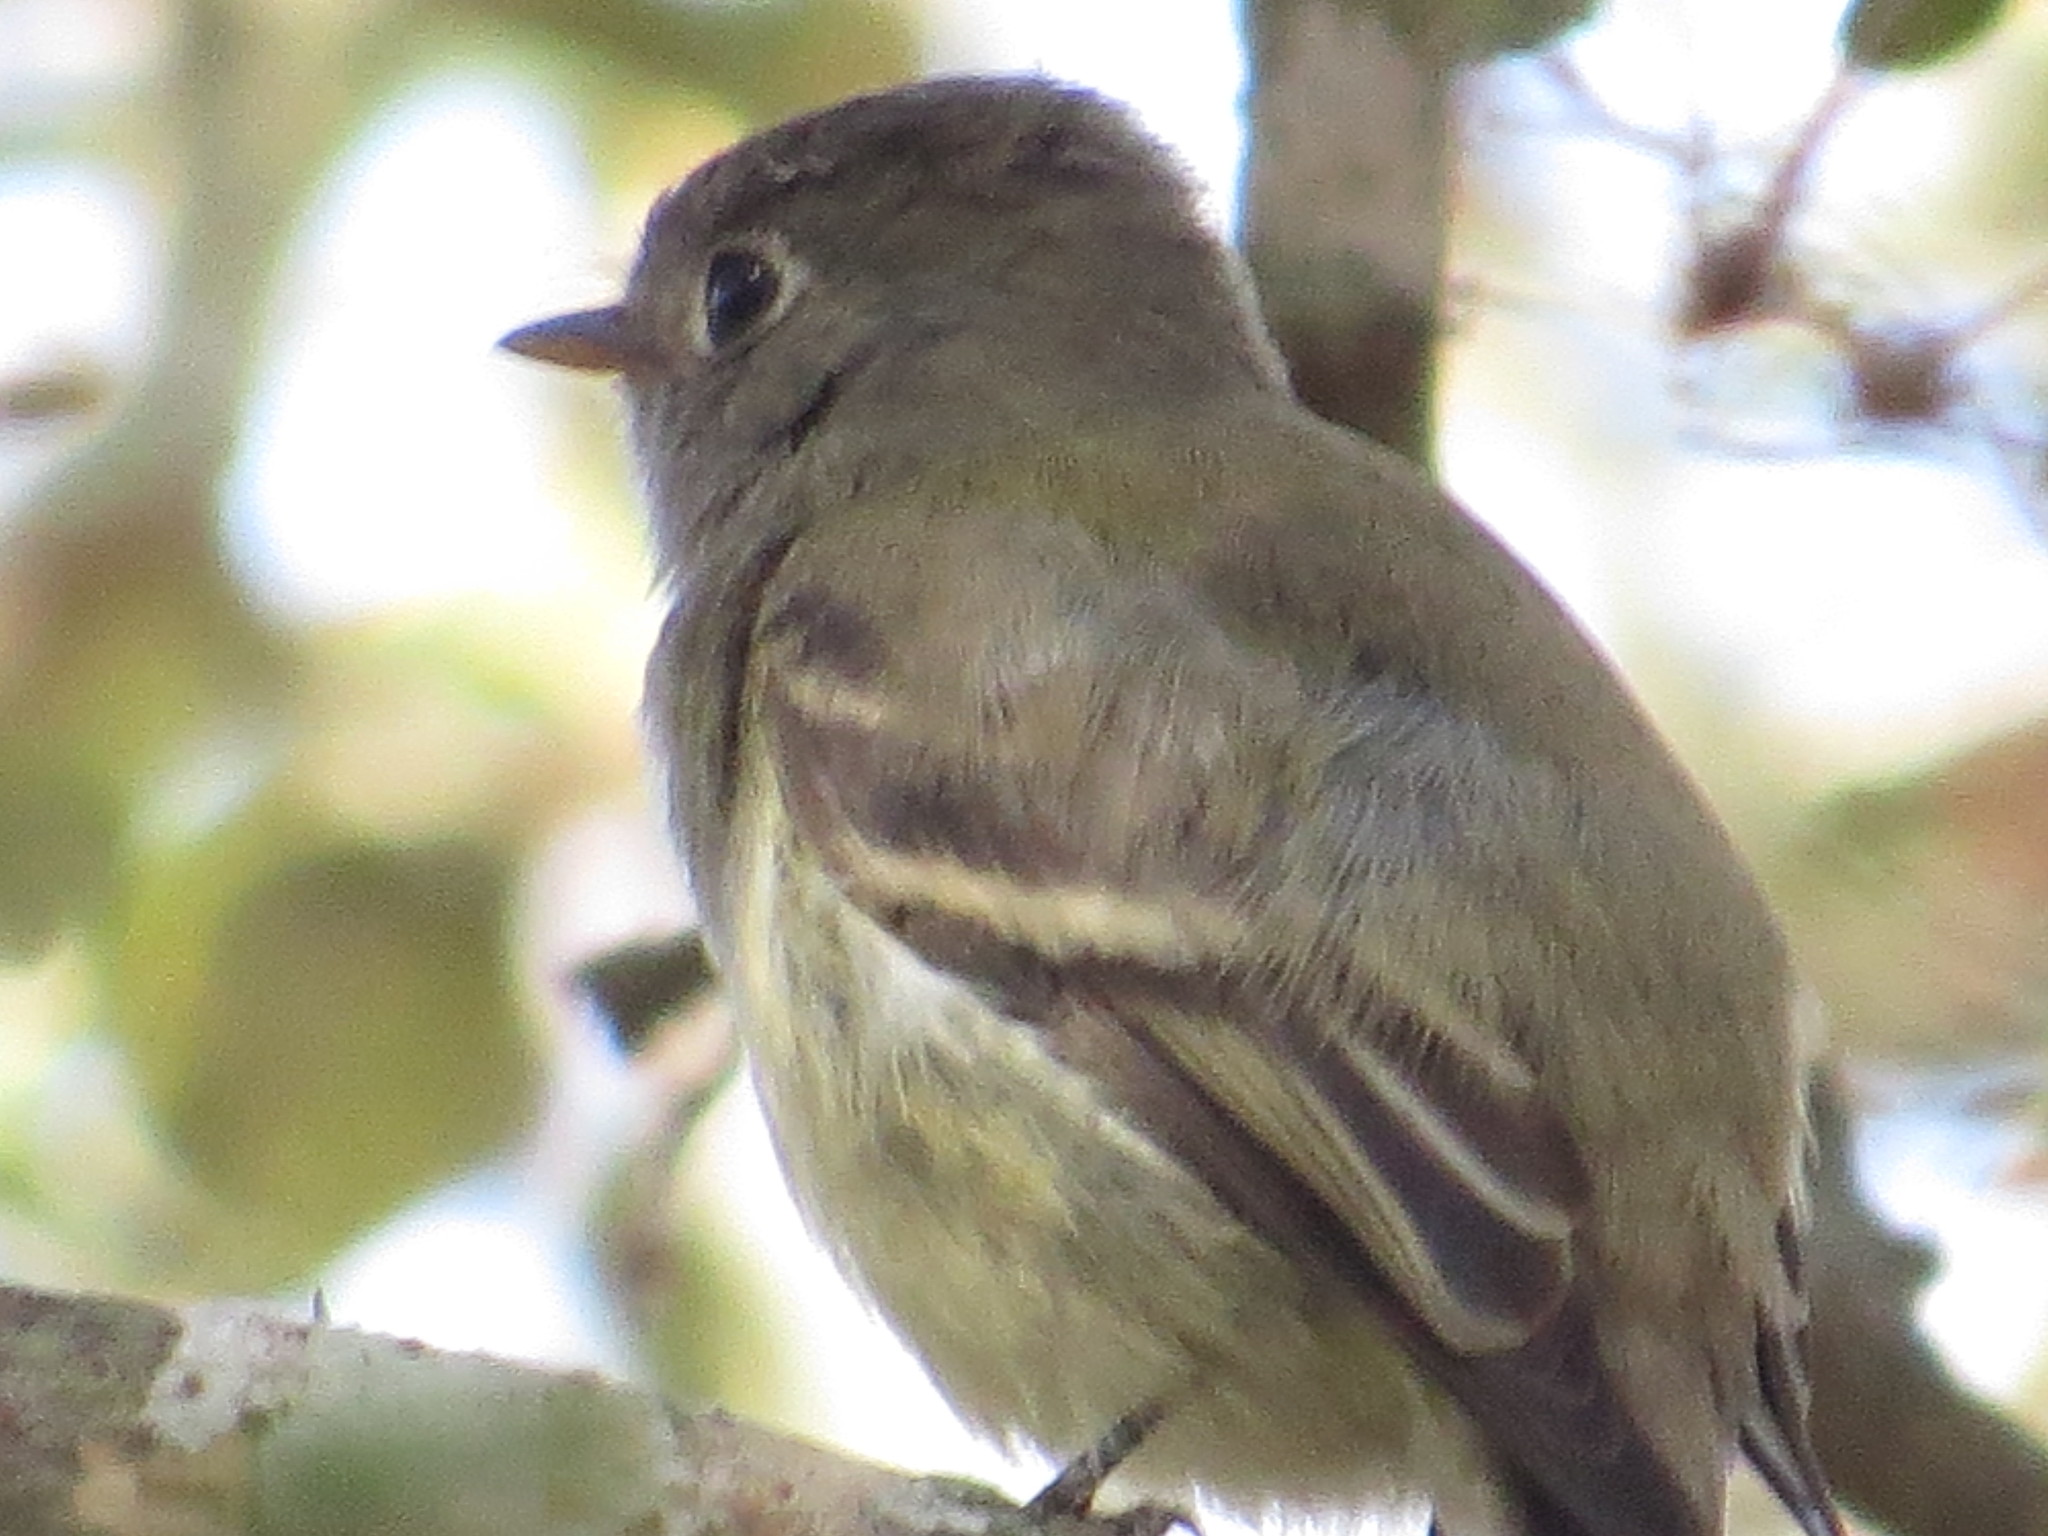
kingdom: Animalia
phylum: Chordata
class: Aves
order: Passeriformes
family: Tyrannidae
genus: Empidonax
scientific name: Empidonax hammondii
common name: Hammond's flycatcher
